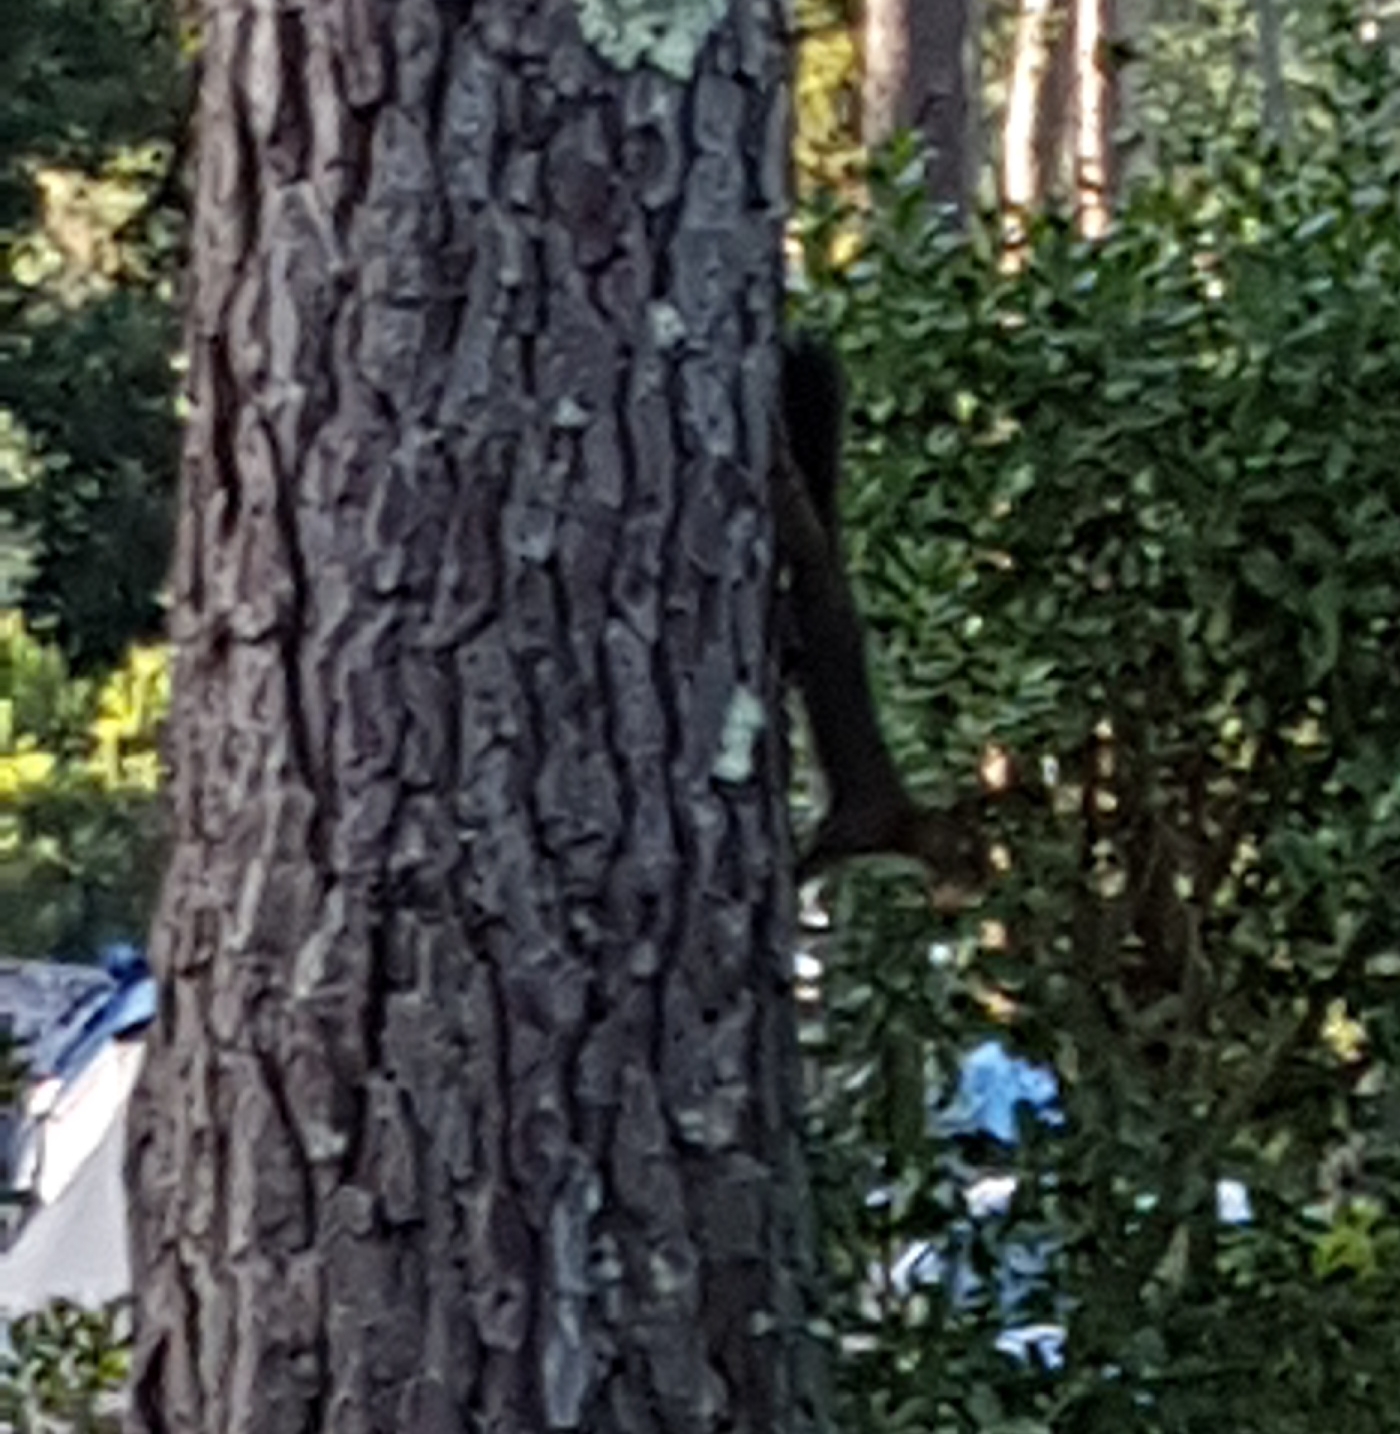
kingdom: Animalia
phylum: Chordata
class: Mammalia
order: Rodentia
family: Sciuridae
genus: Sciurus
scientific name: Sciurus vulgaris
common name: Eurasian red squirrel
